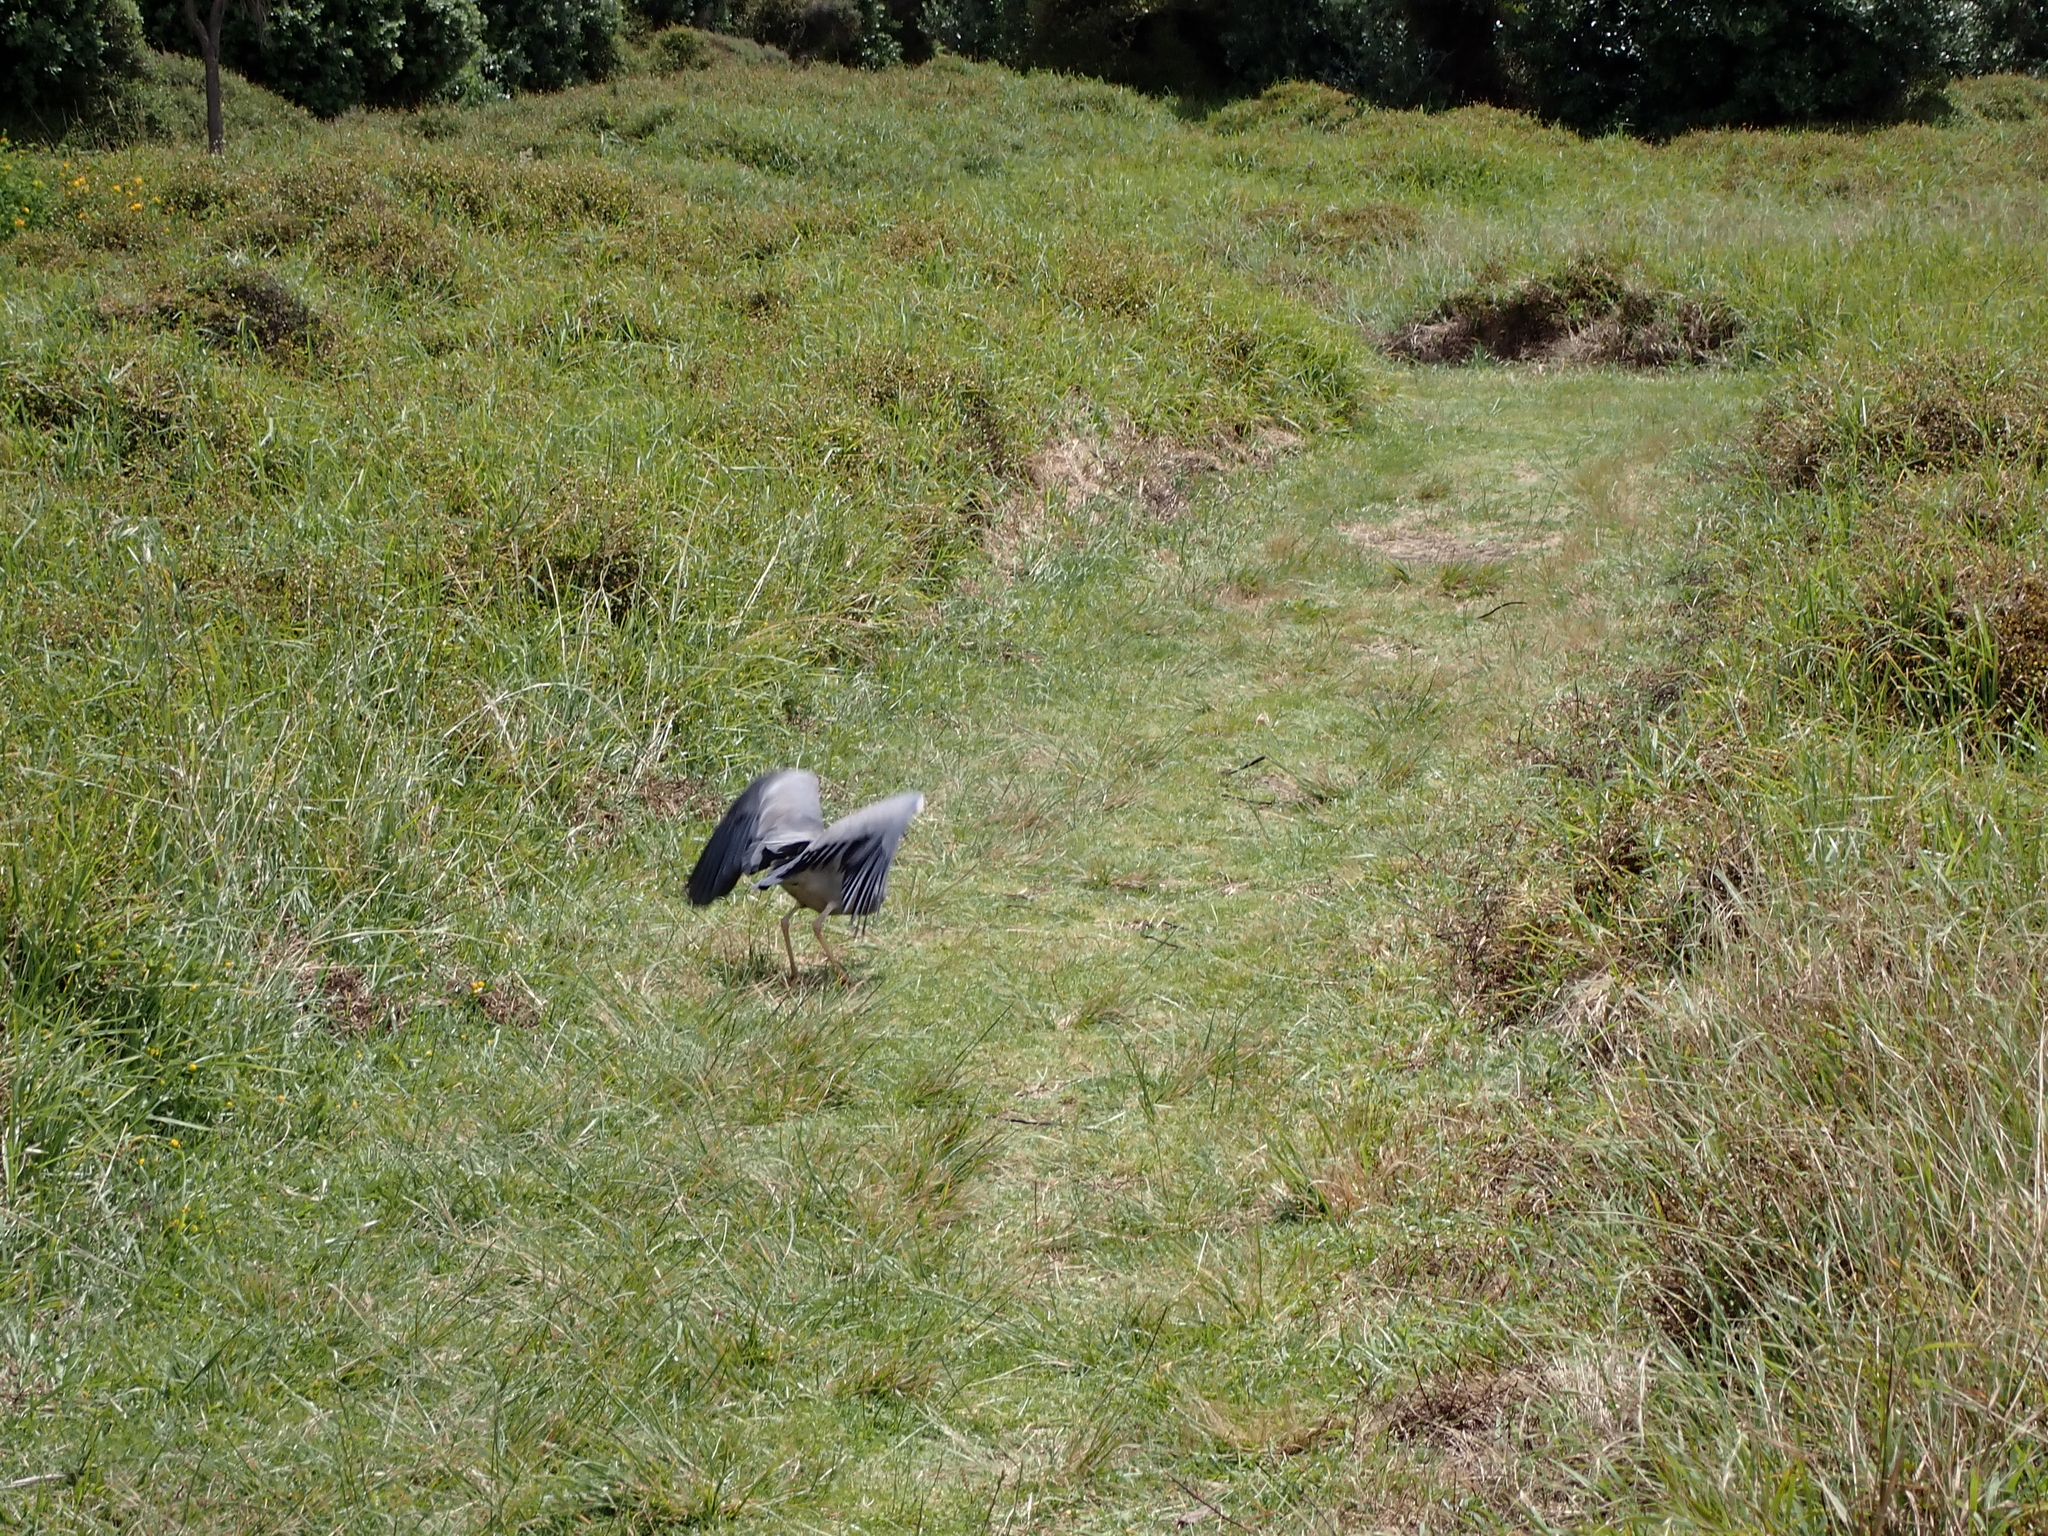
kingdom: Animalia
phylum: Chordata
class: Aves
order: Pelecaniformes
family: Ardeidae
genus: Egretta
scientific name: Egretta novaehollandiae
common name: White-faced heron
